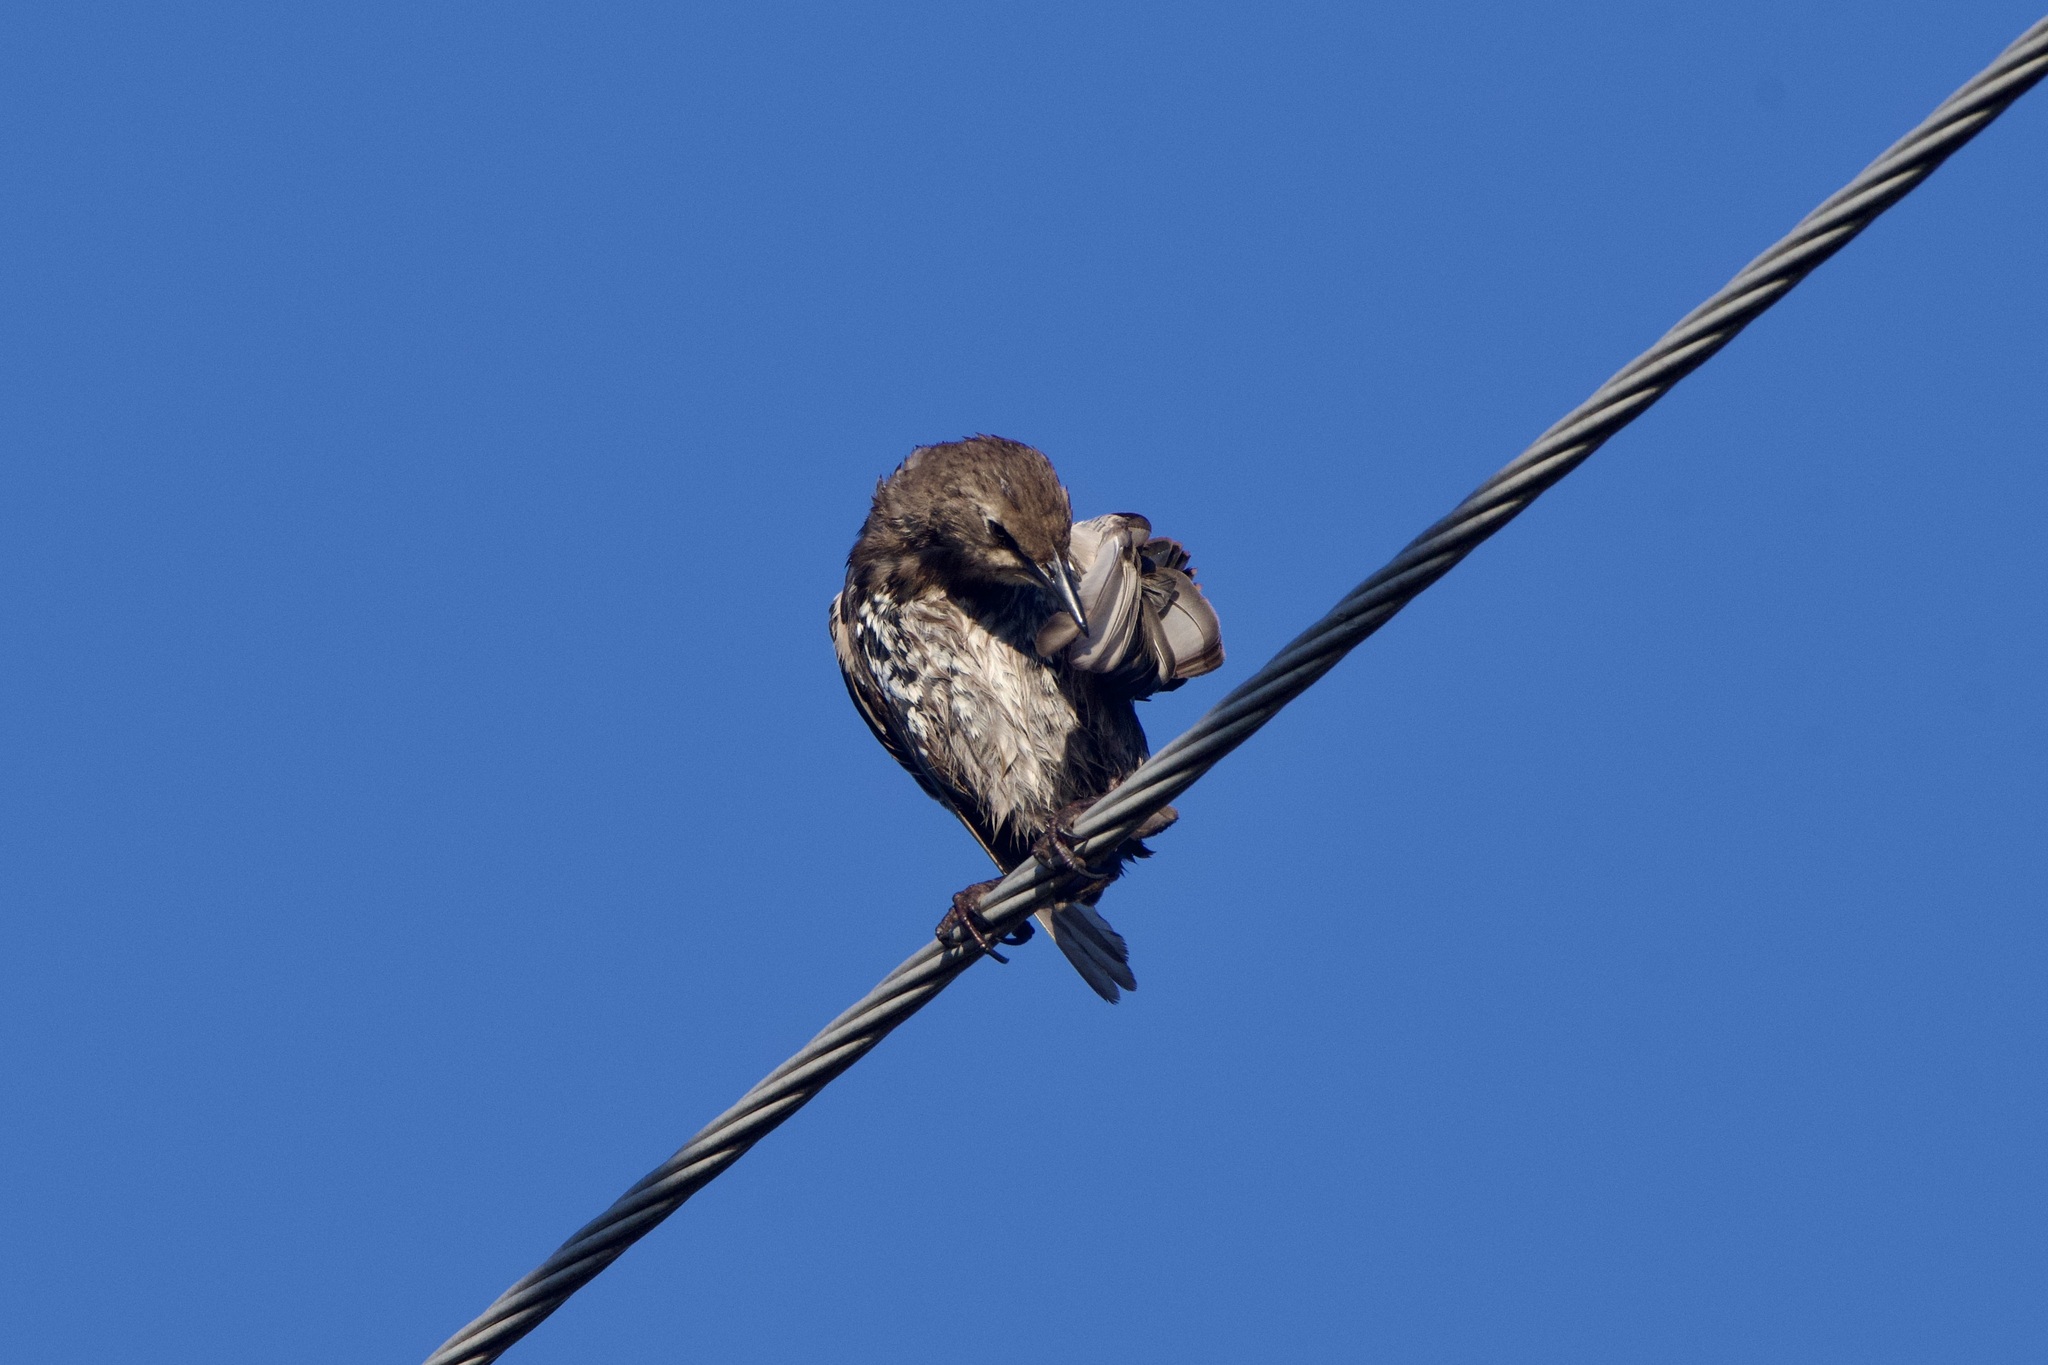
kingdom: Animalia
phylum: Chordata
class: Aves
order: Passeriformes
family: Sturnidae
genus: Sturnus
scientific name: Sturnus vulgaris
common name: Common starling
